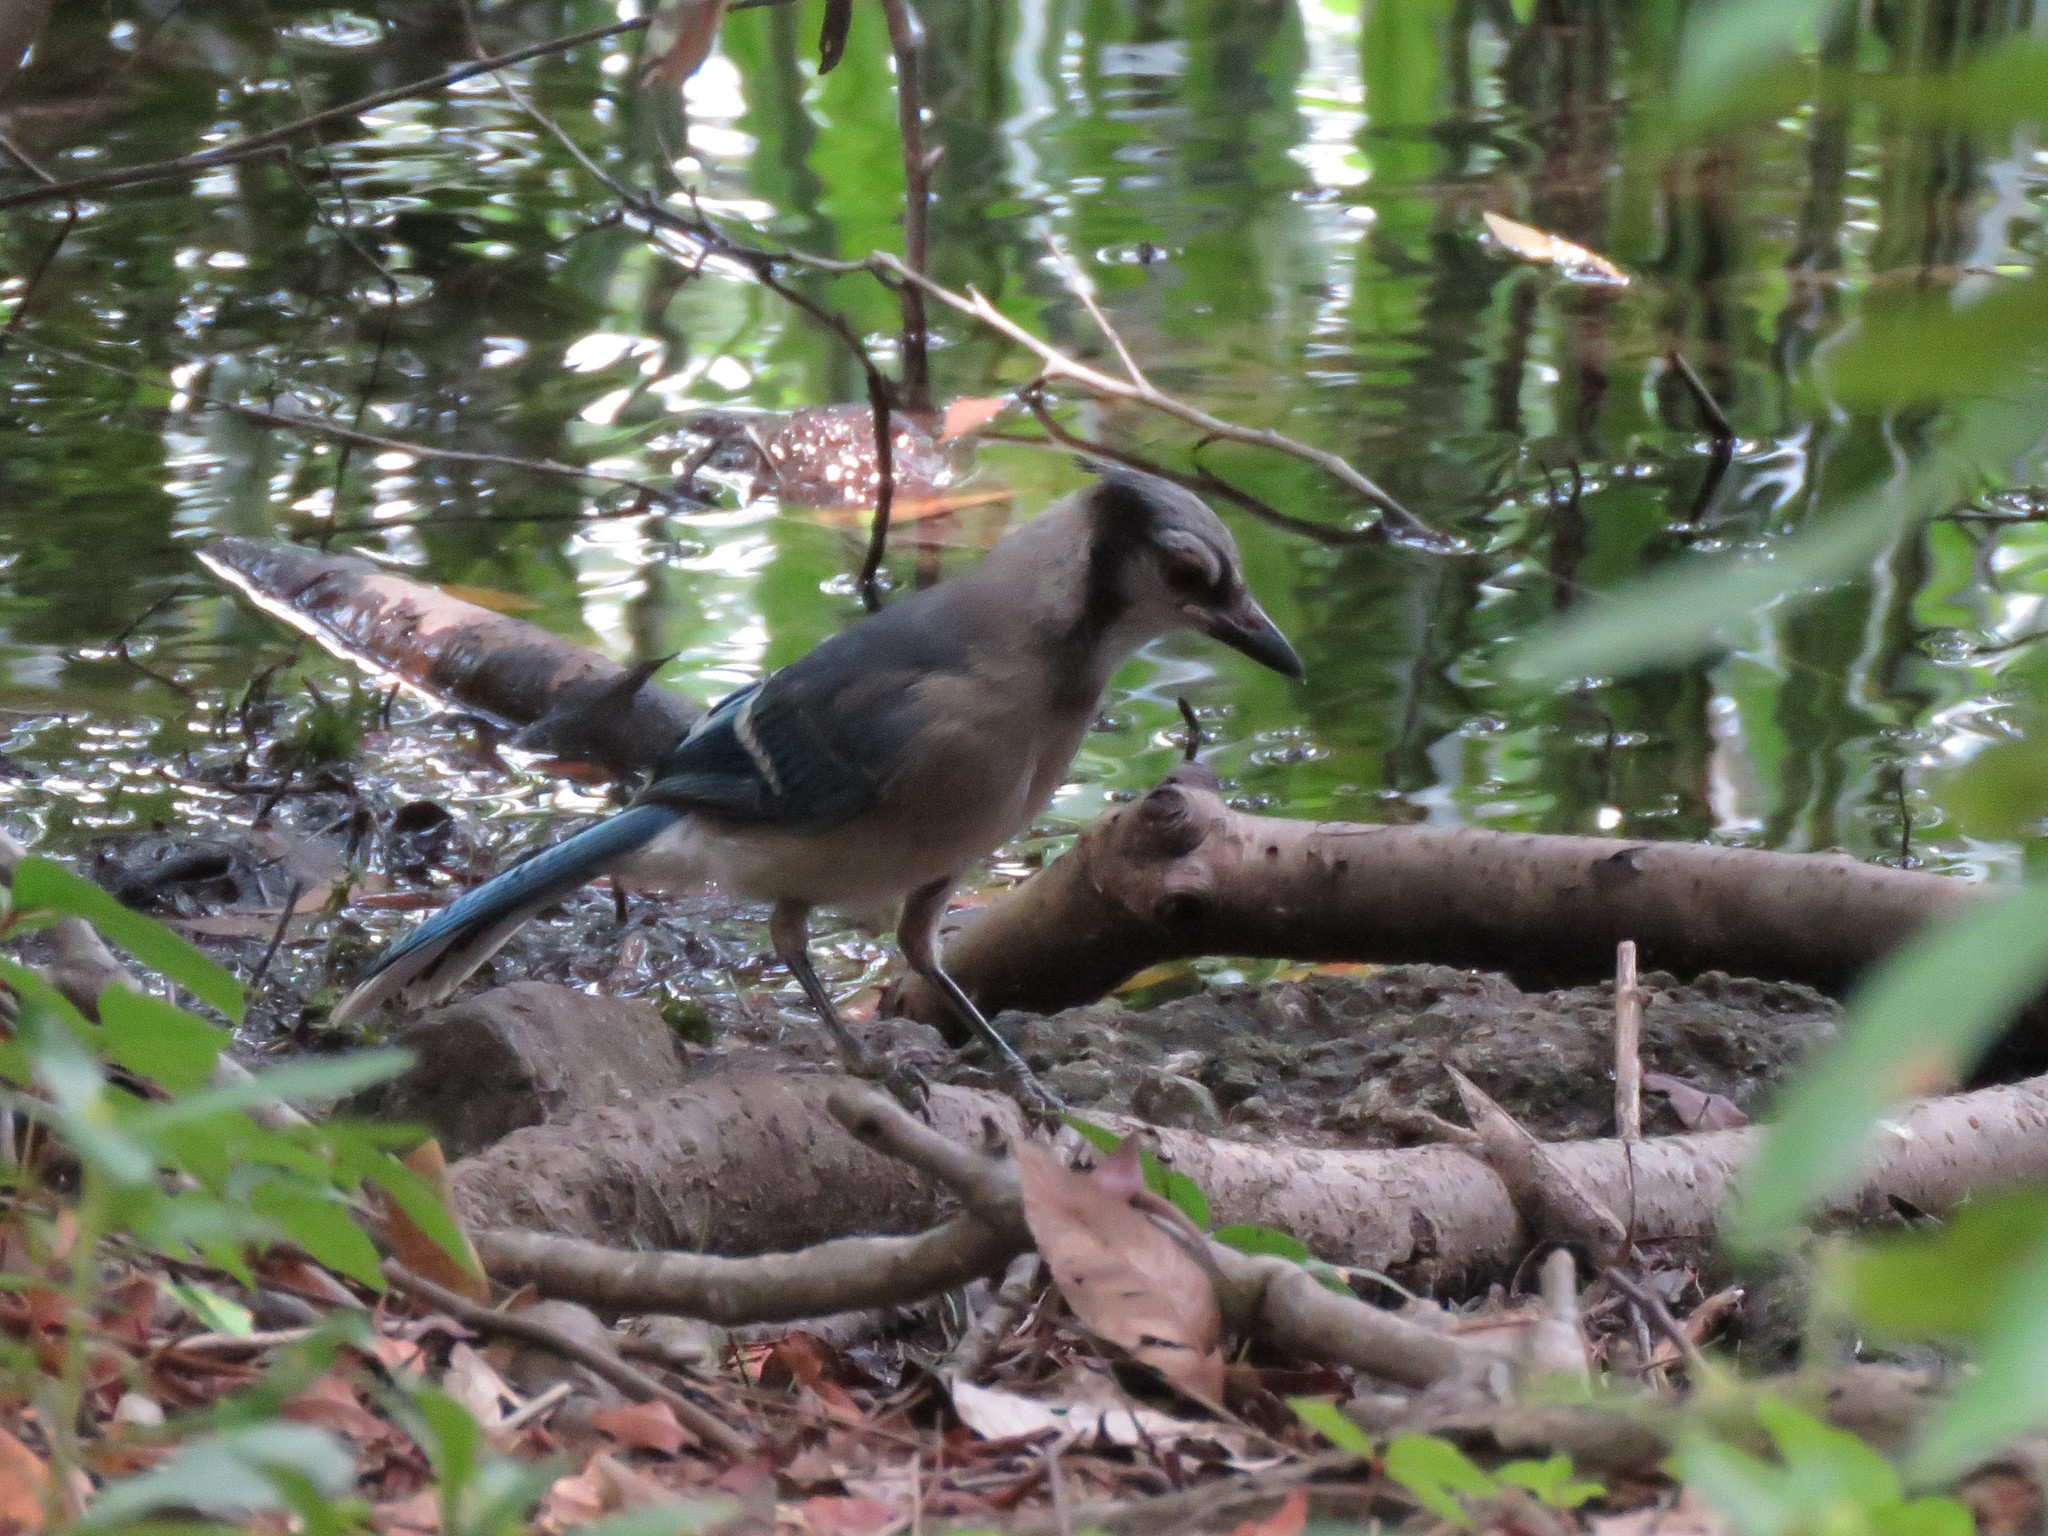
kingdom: Animalia
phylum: Chordata
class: Aves
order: Passeriformes
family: Corvidae
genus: Cyanocitta
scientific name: Cyanocitta cristata
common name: Blue jay
